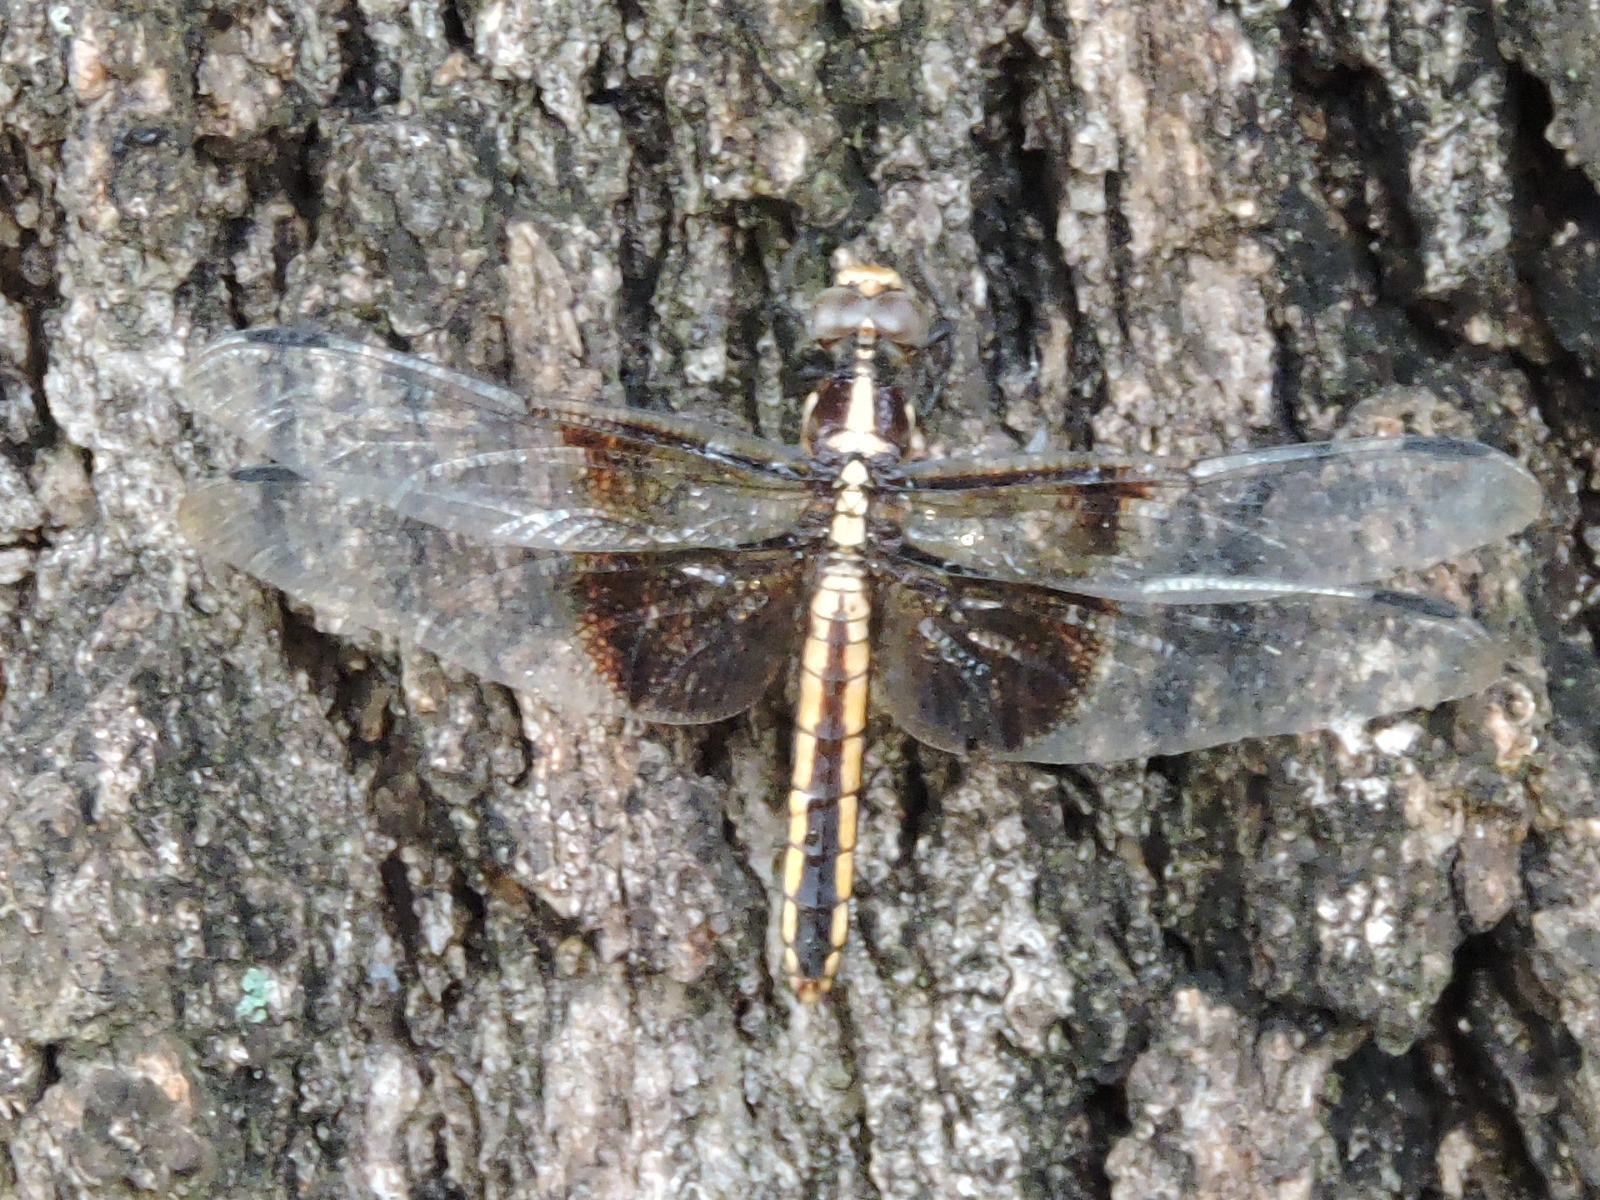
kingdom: Animalia
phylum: Arthropoda
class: Insecta
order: Odonata
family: Libellulidae
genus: Libellula
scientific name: Libellula luctuosa
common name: Widow skimmer
